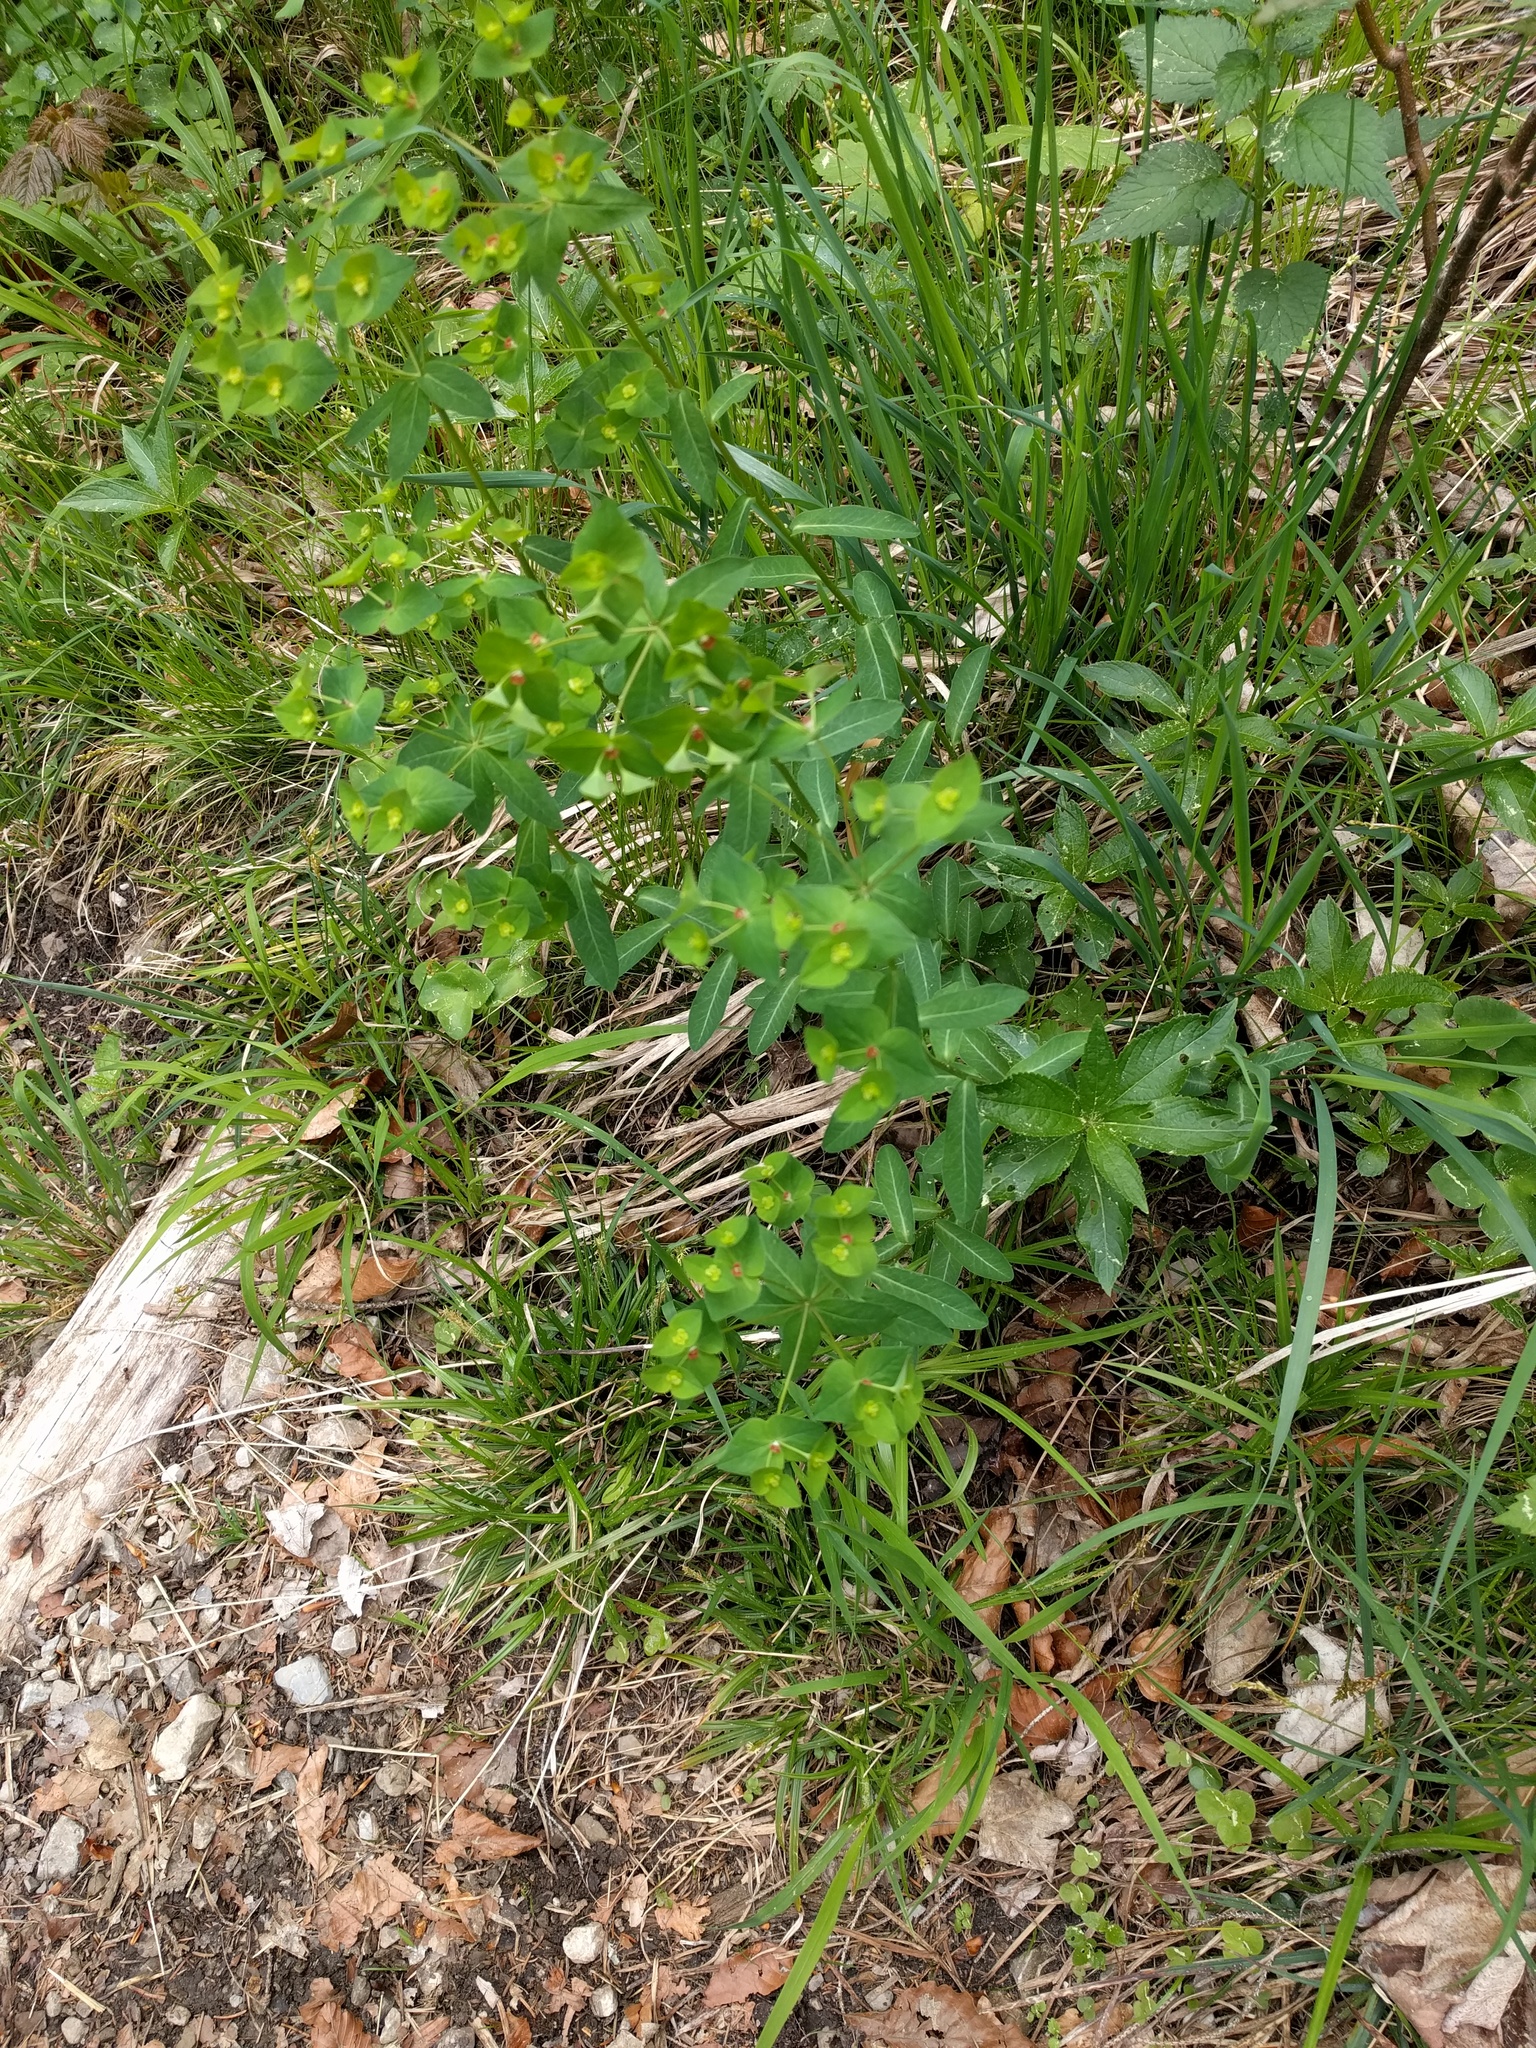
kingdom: Plantae
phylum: Tracheophyta
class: Magnoliopsida
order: Malpighiales
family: Euphorbiaceae
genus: Euphorbia
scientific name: Euphorbia dulcis
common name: Sweet spurge
